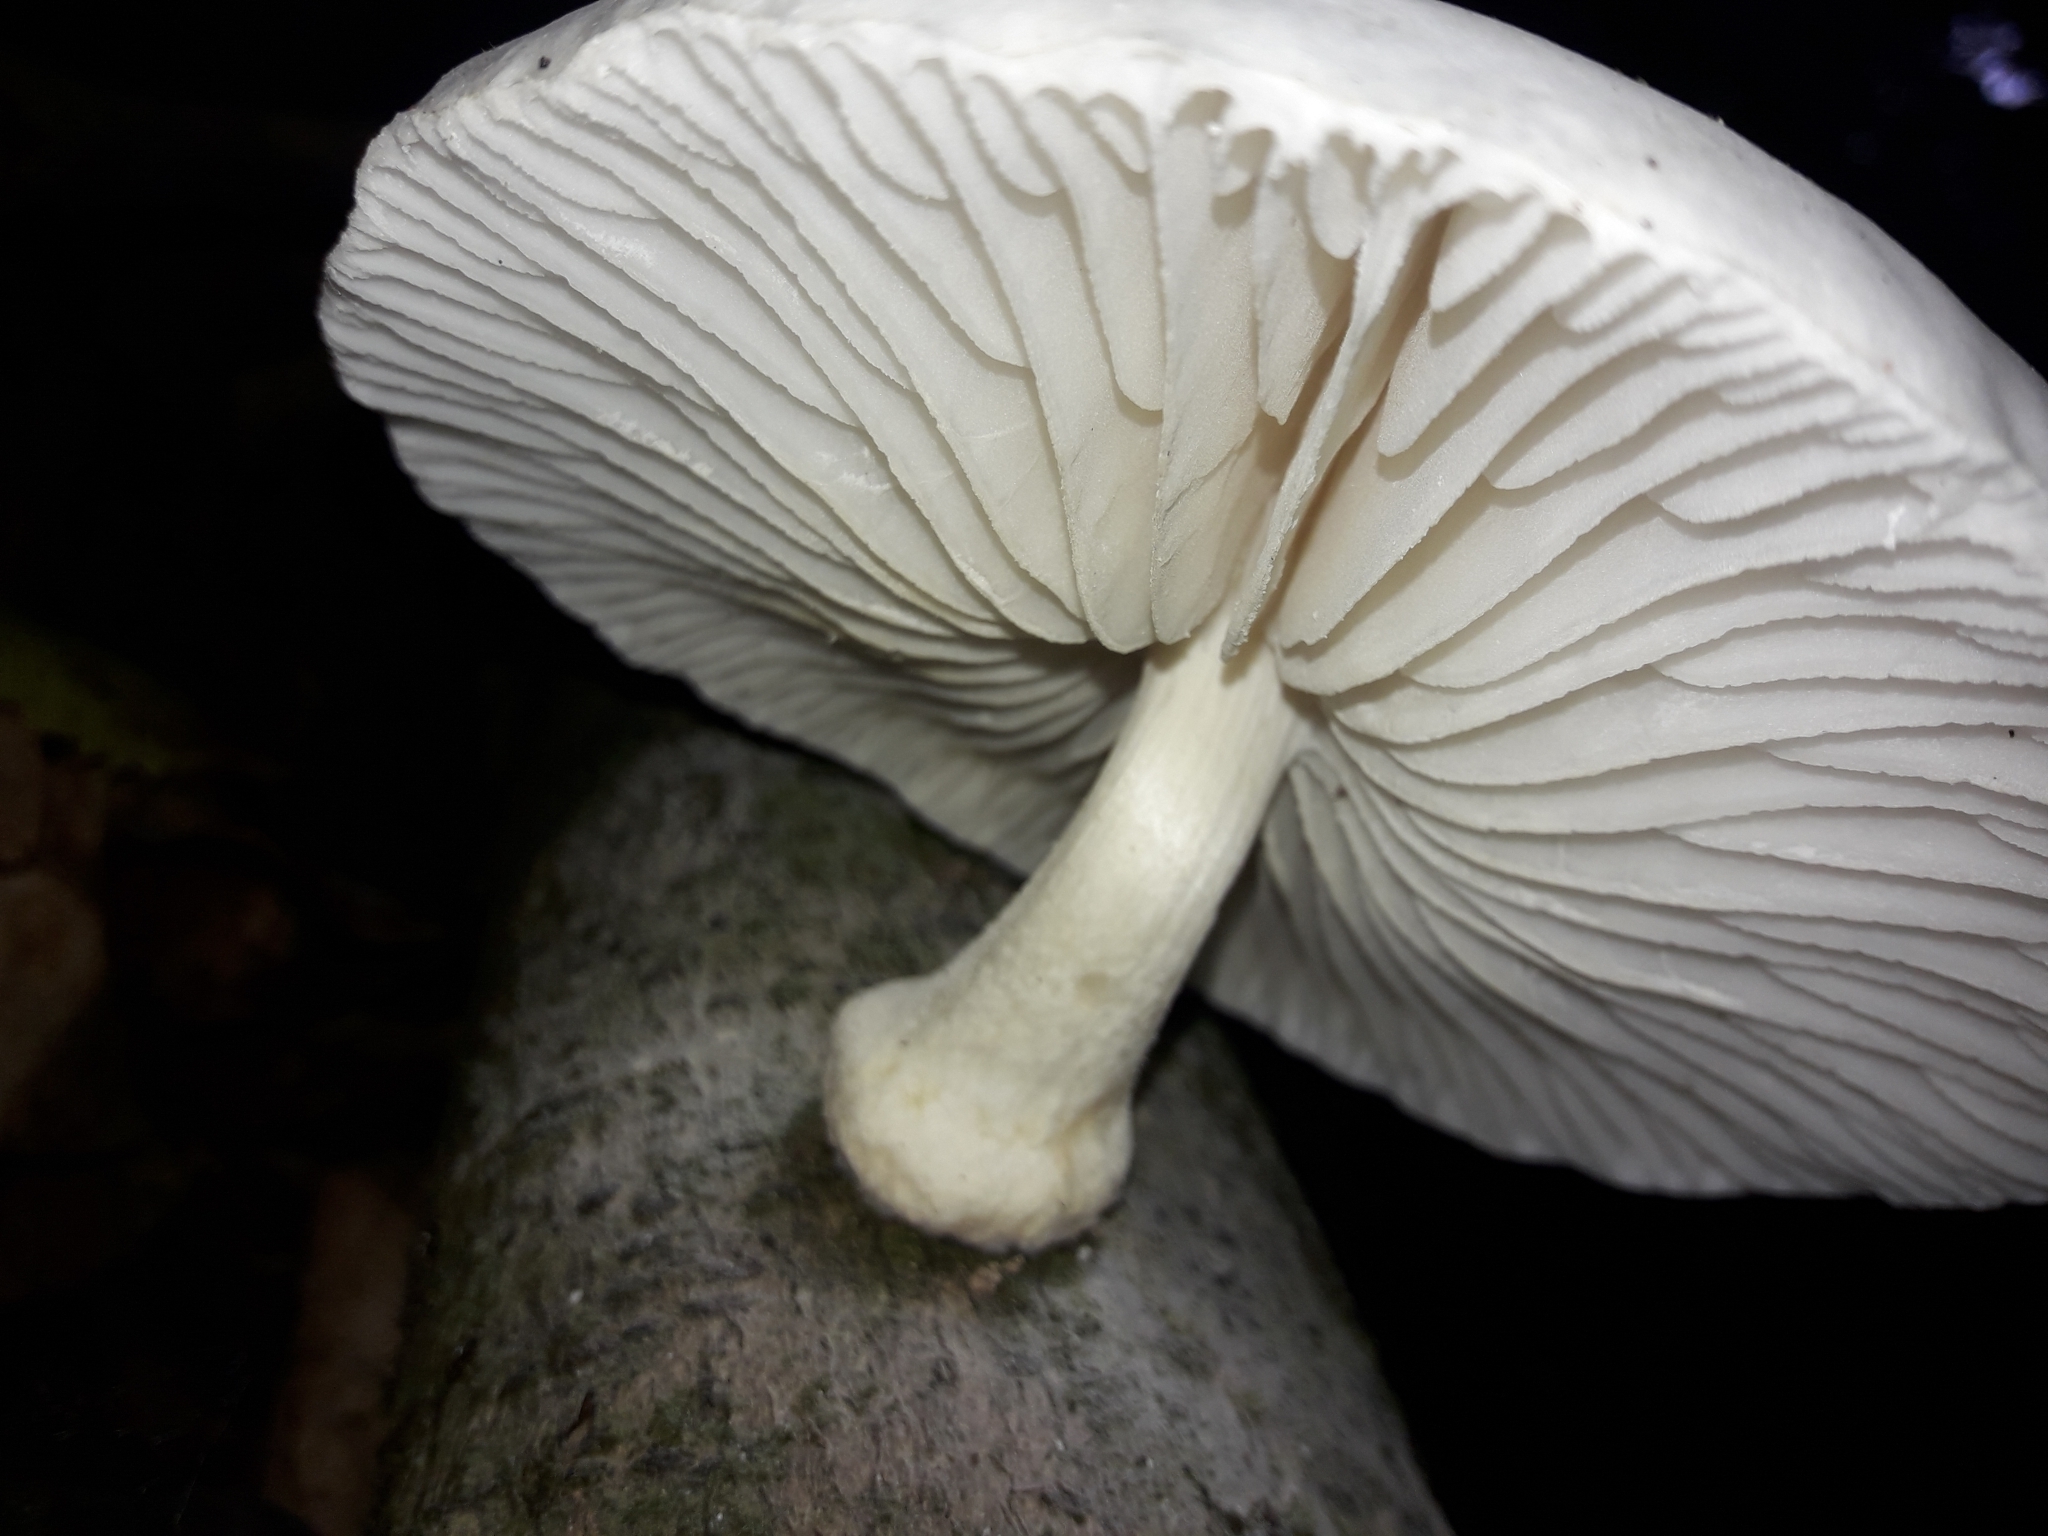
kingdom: Fungi
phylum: Basidiomycota
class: Agaricomycetes
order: Agaricales
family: Physalacriaceae
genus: Oudemansiella
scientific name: Oudemansiella australis
